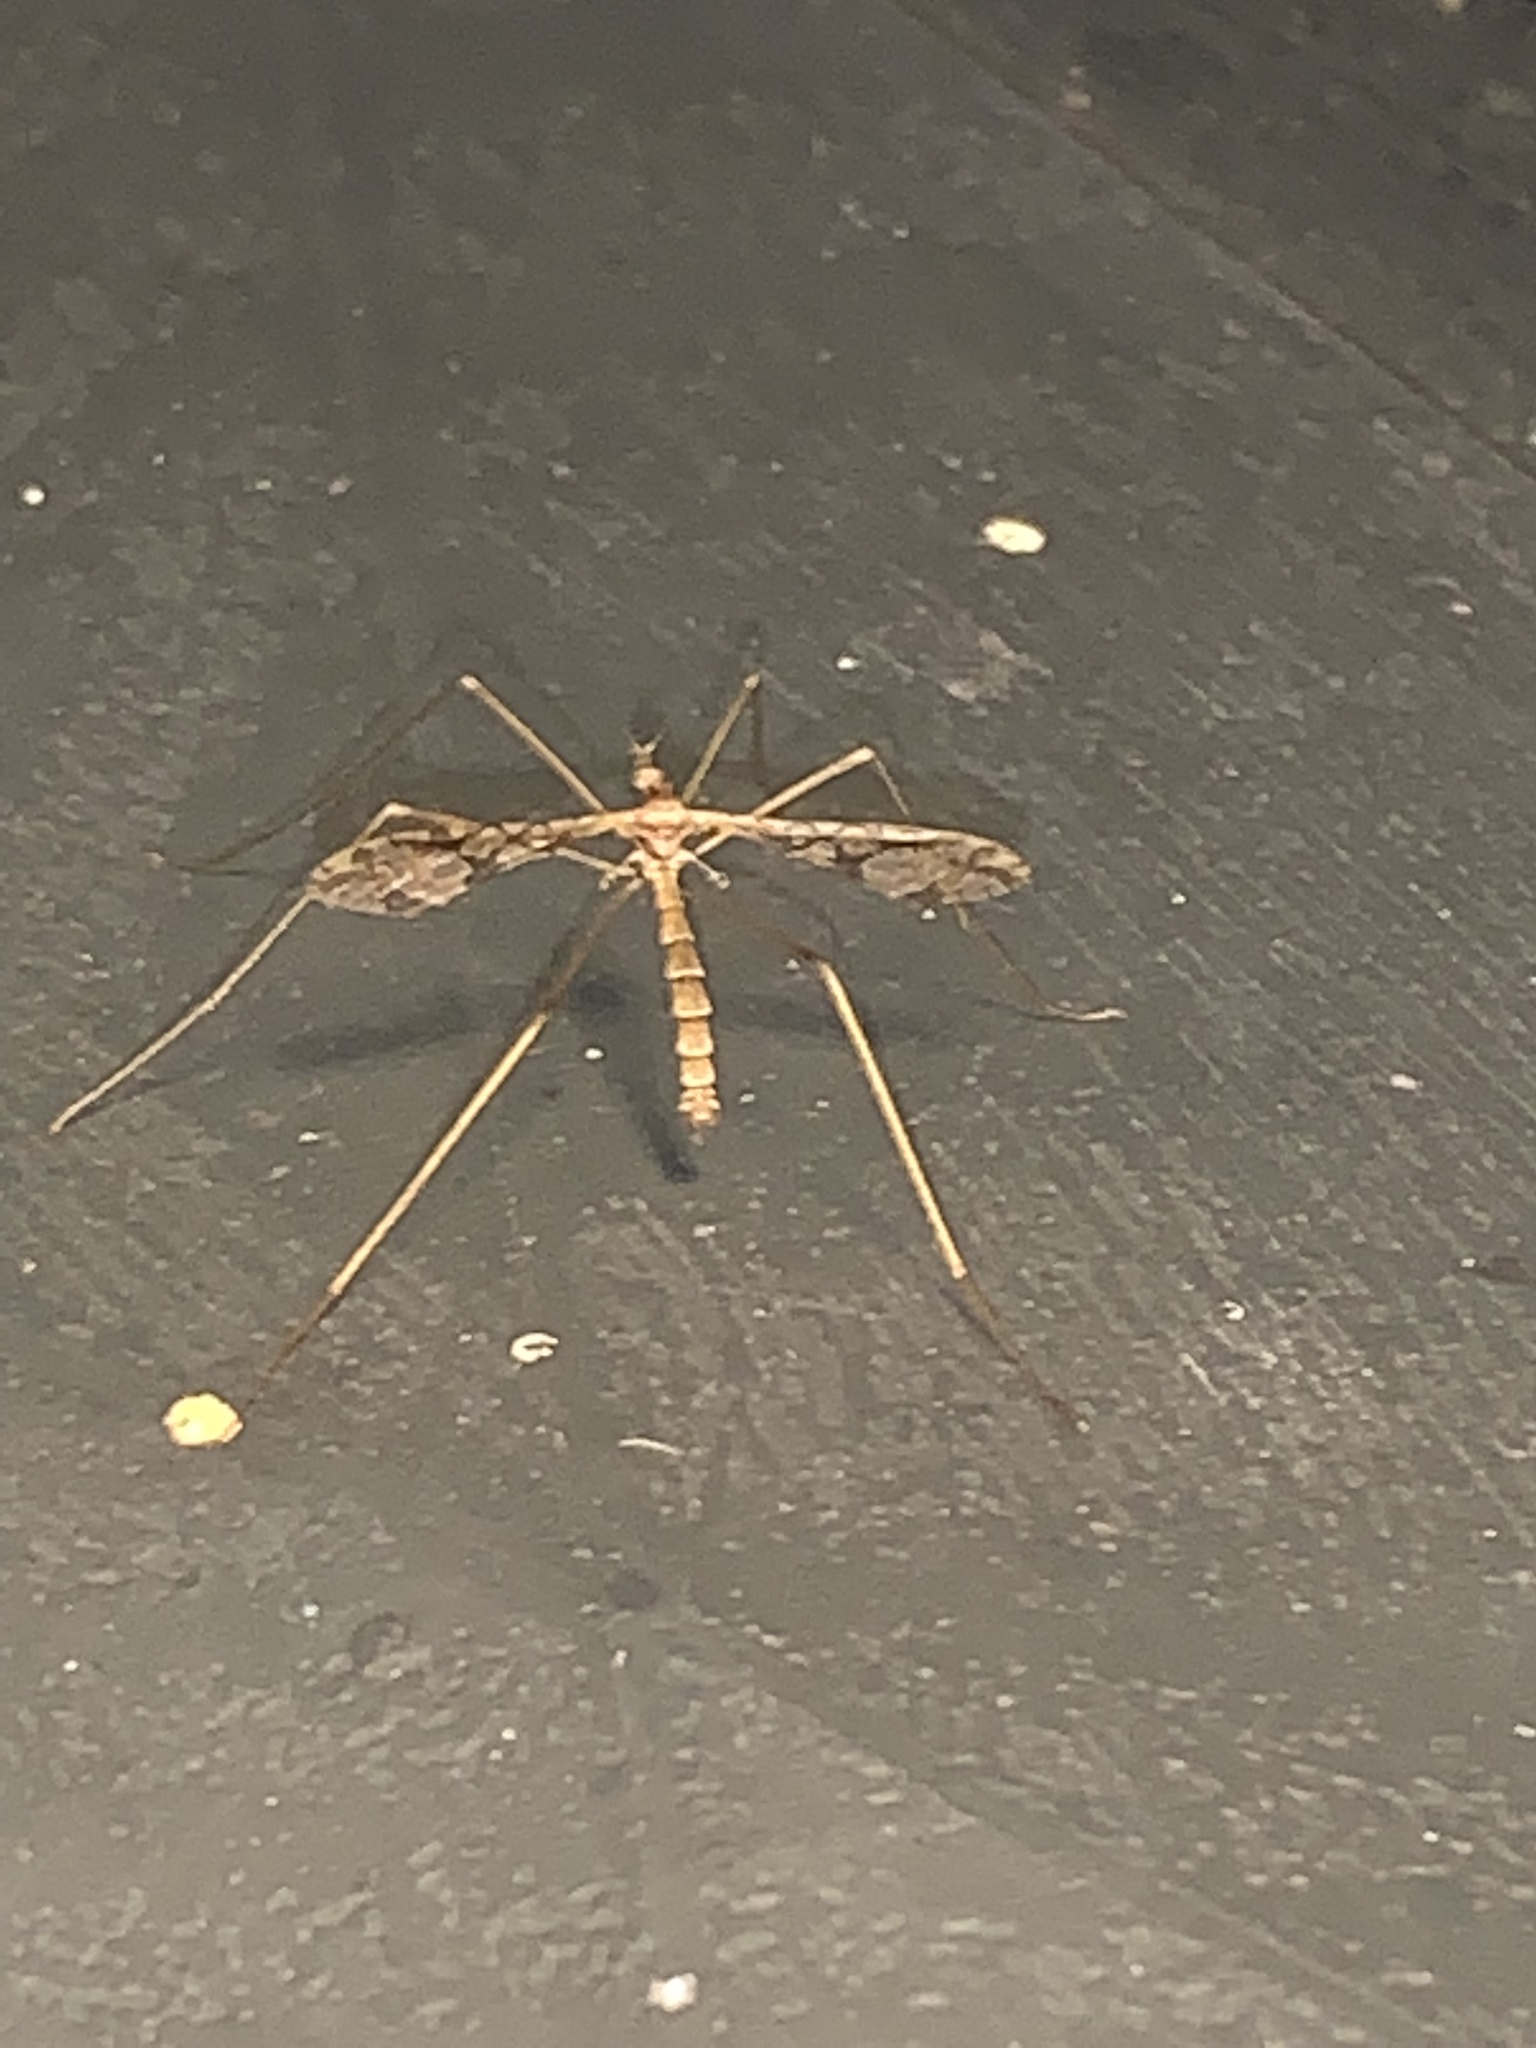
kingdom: Animalia
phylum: Arthropoda
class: Insecta
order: Diptera
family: Limoniidae
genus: Epiphragma
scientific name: Epiphragma solatrix
